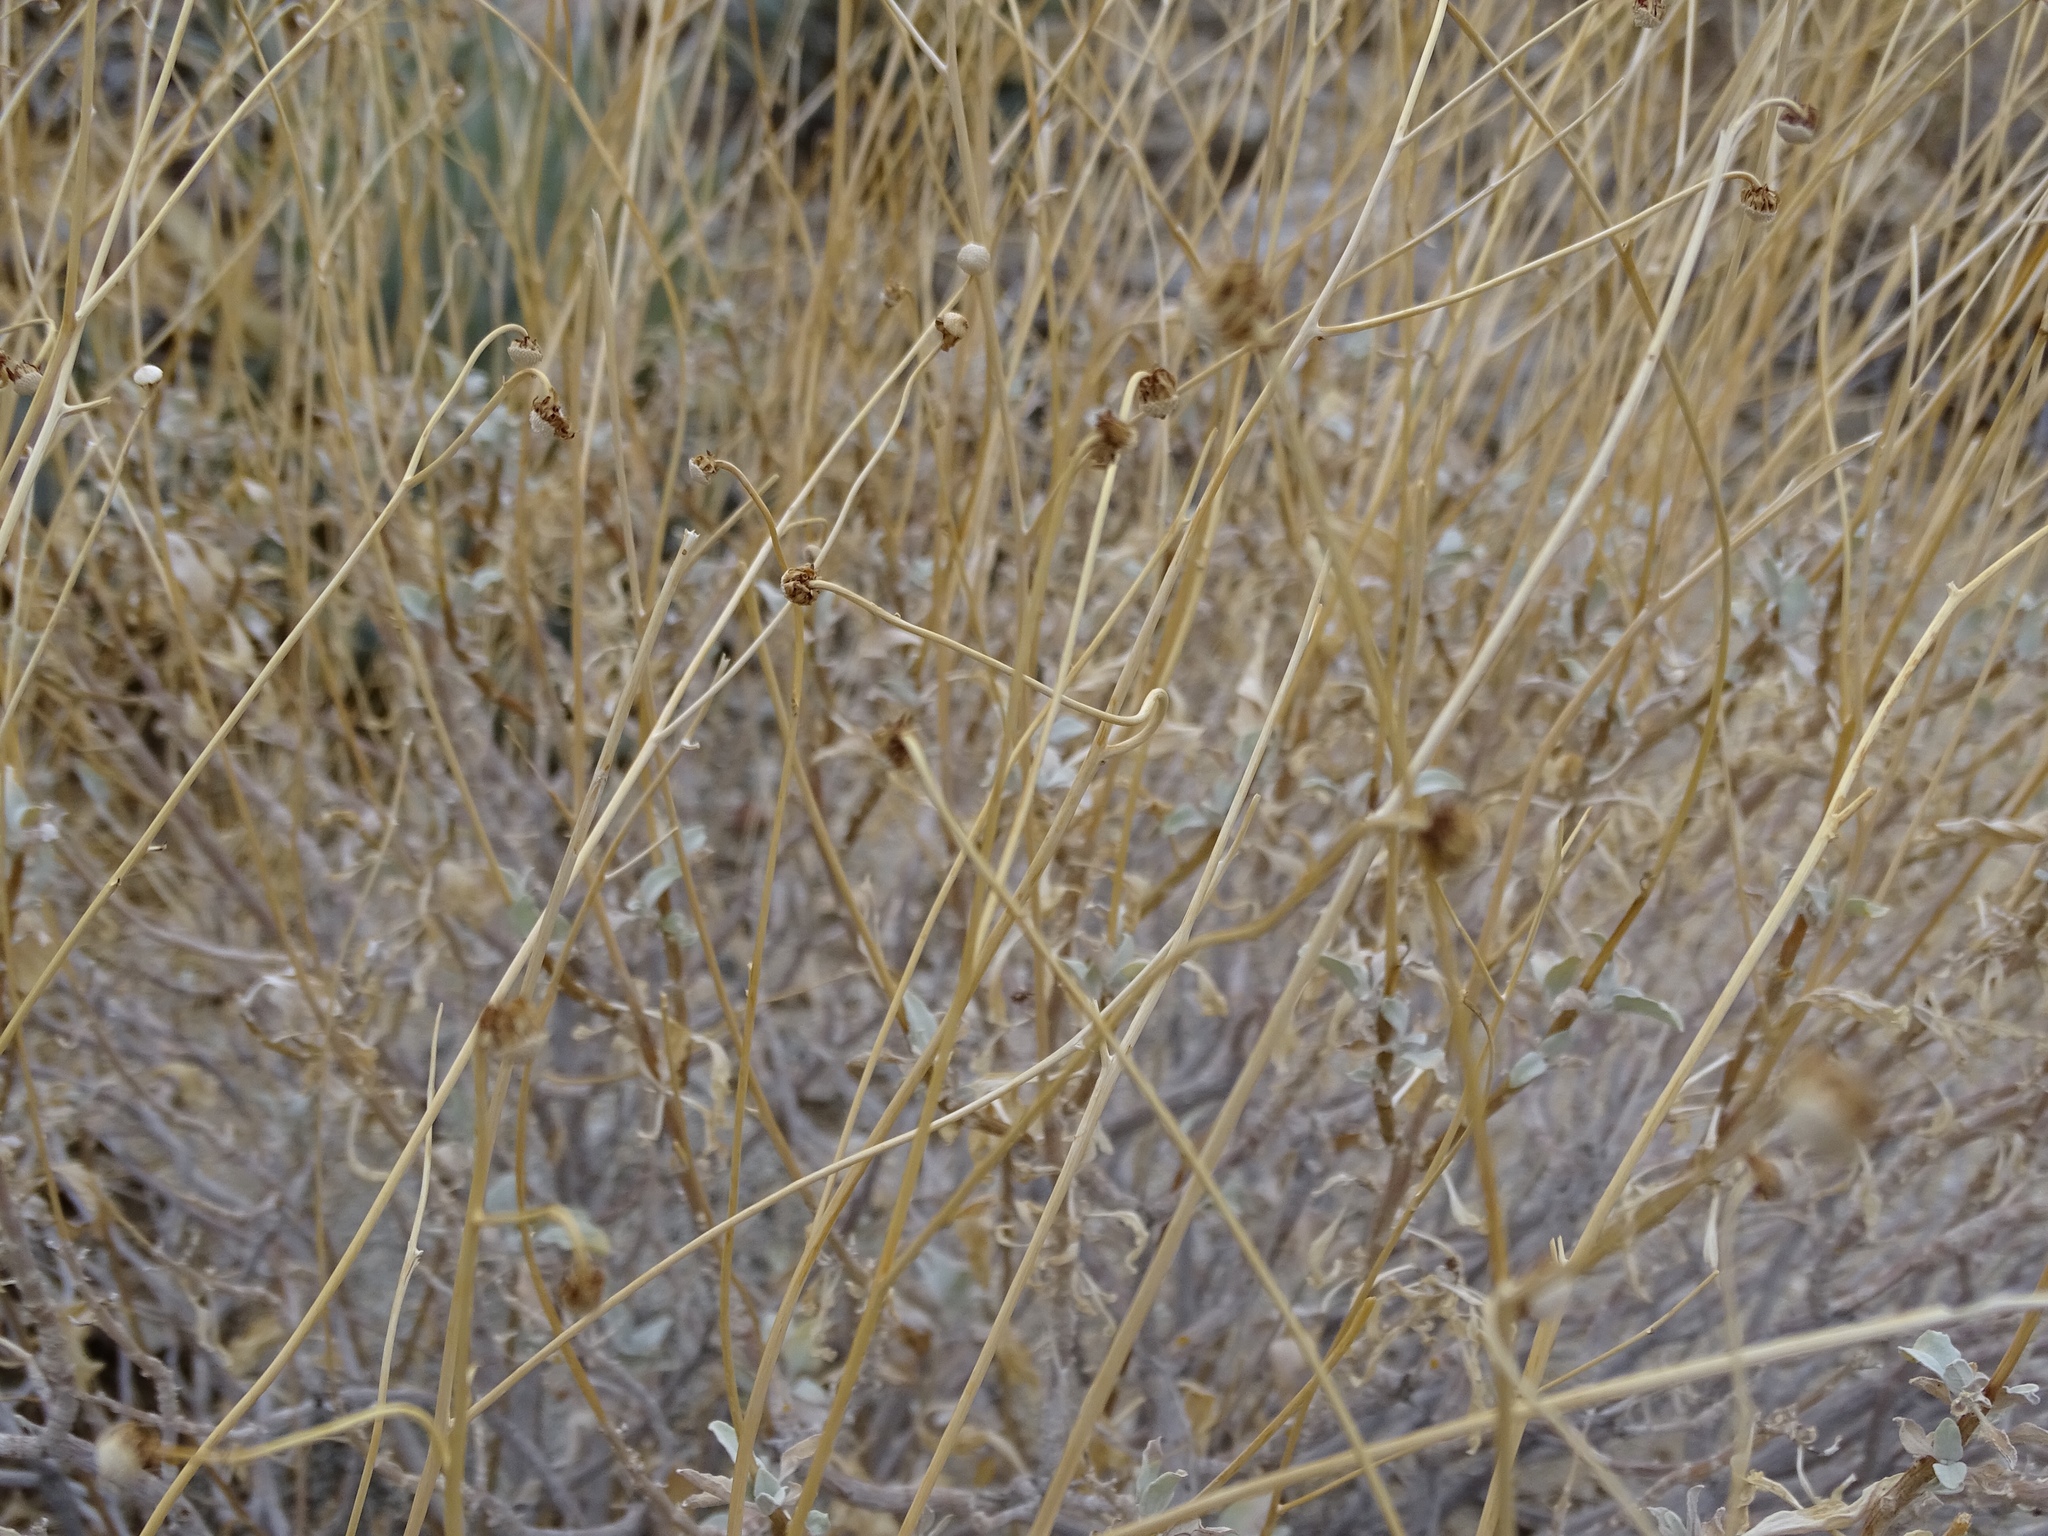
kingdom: Plantae
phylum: Tracheophyta
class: Magnoliopsida
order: Asterales
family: Asteraceae
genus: Encelia
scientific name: Encelia farinosa
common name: Brittlebush
